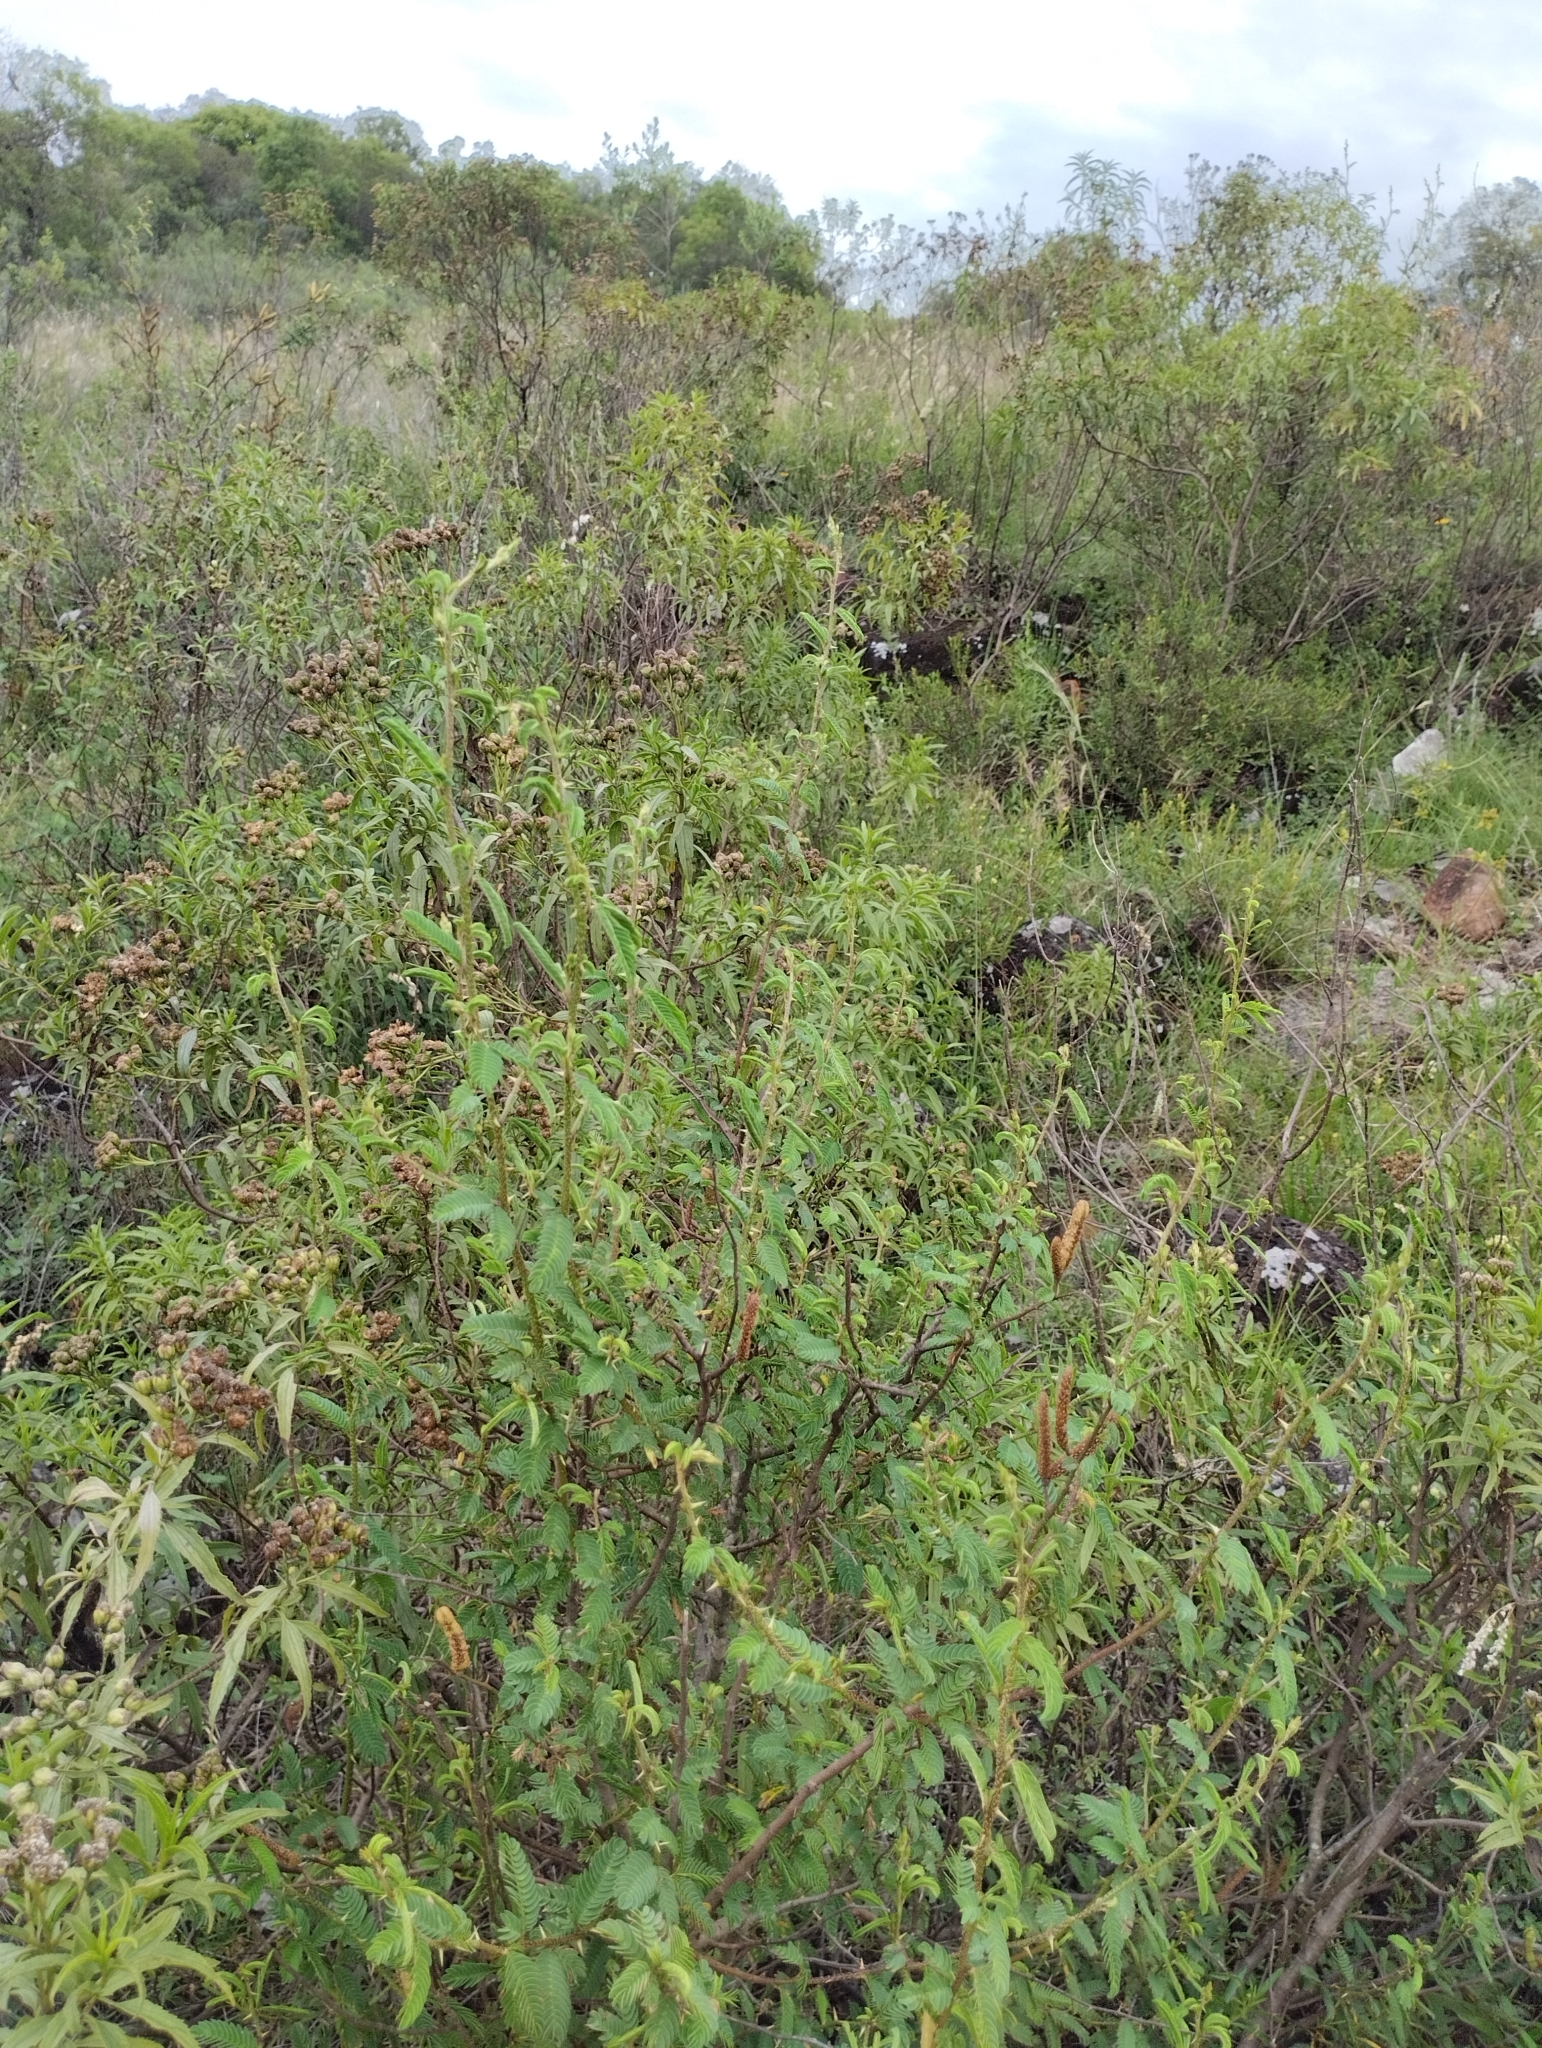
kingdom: Plantae
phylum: Tracheophyta
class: Magnoliopsida
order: Fabales
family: Fabaceae
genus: Mimosa
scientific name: Mimosa sprengelii
